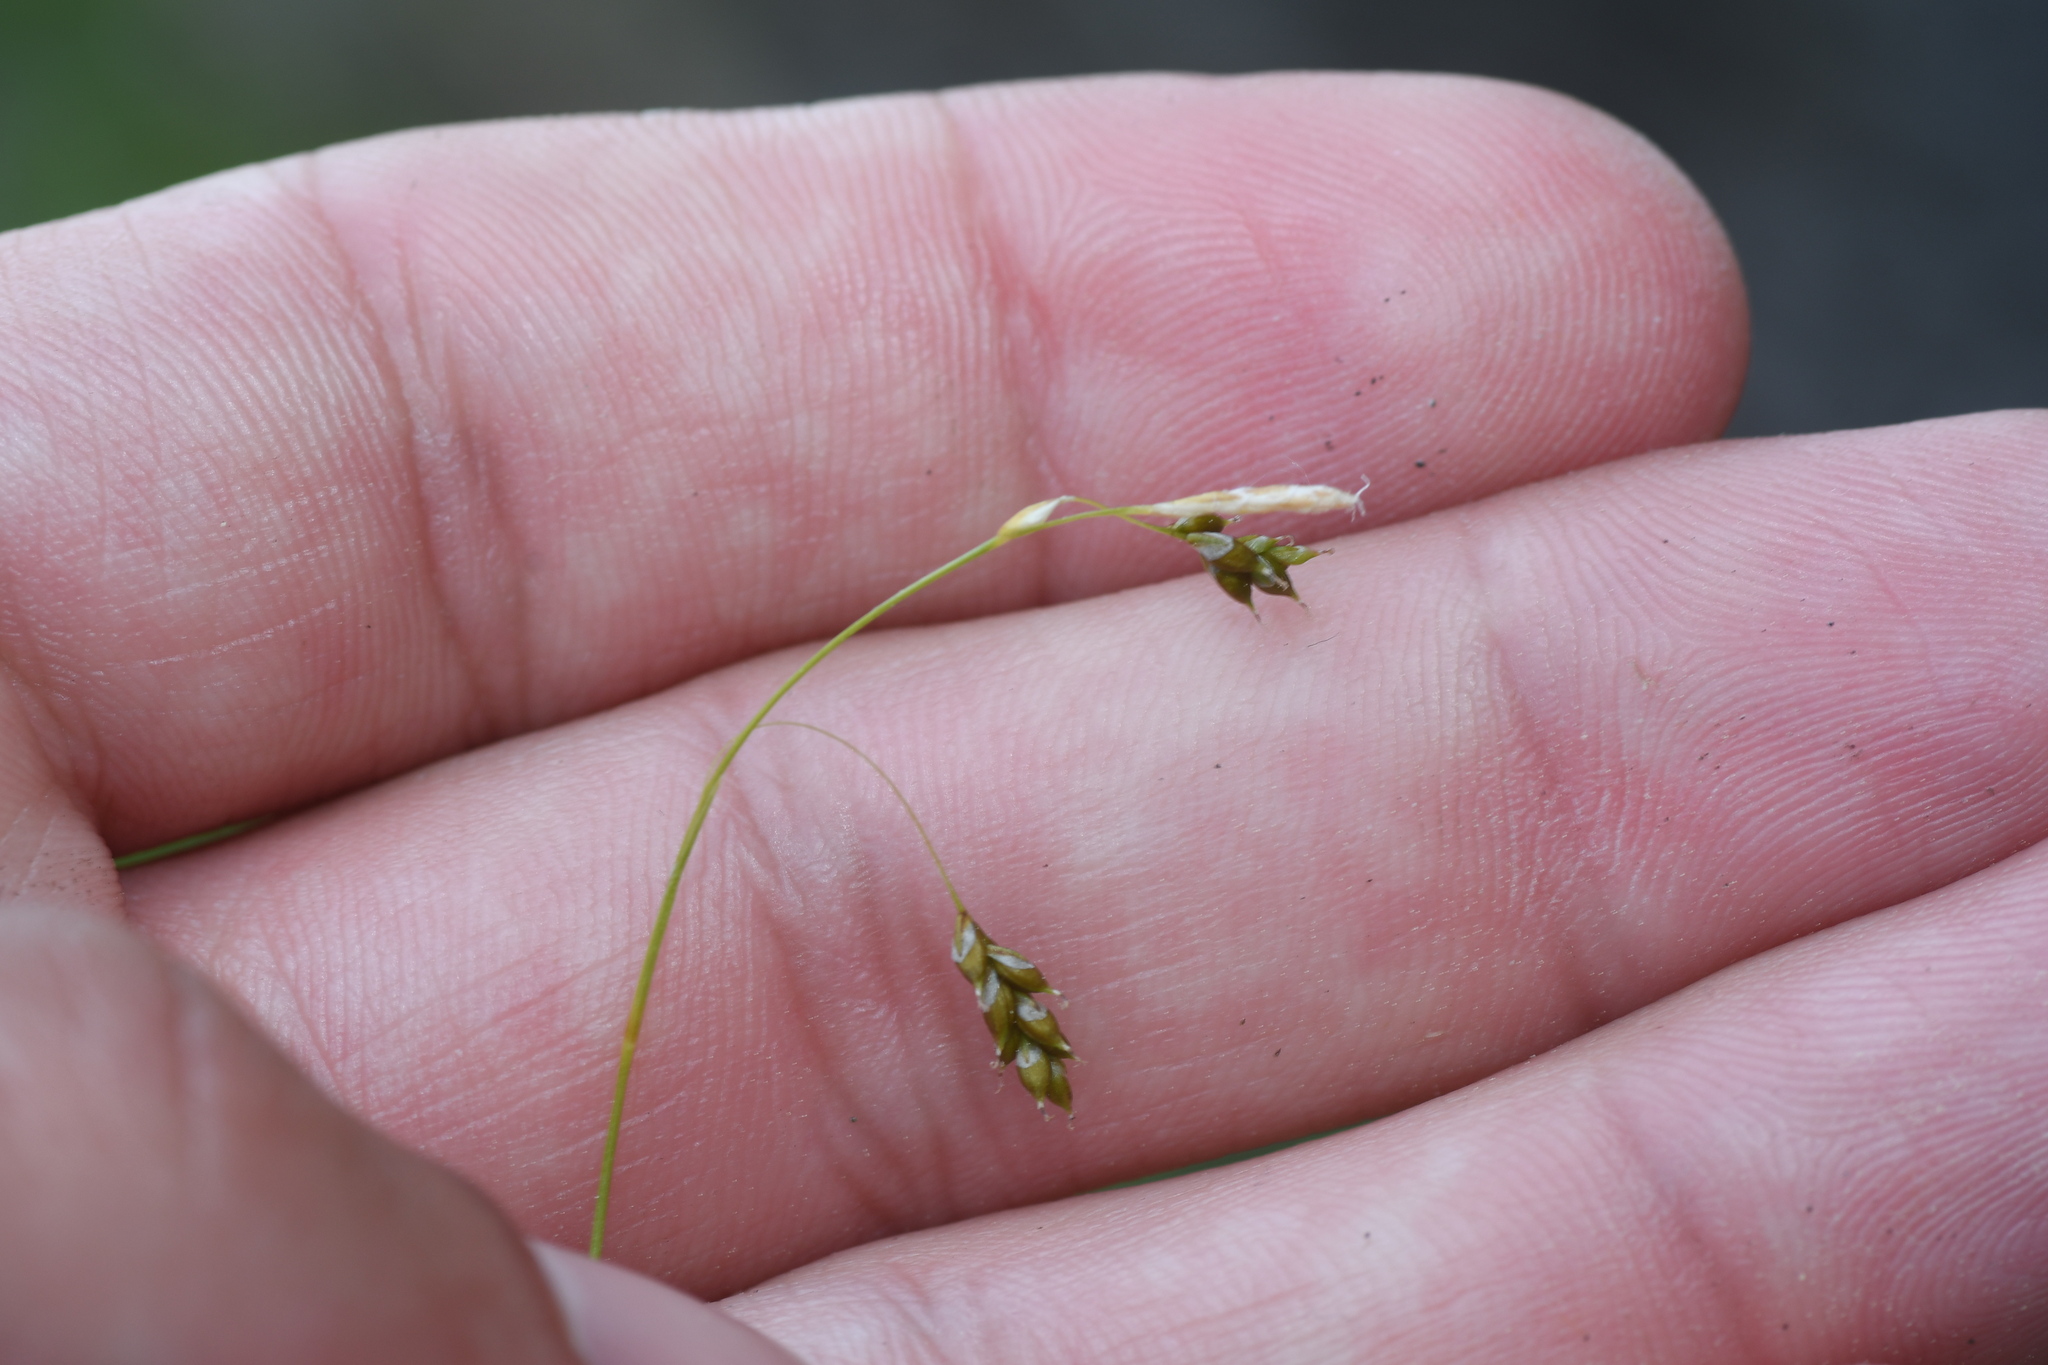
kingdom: Plantae
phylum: Tracheophyta
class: Liliopsida
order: Poales
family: Cyperaceae
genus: Carex
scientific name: Carex capillaris
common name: Hair sedge
